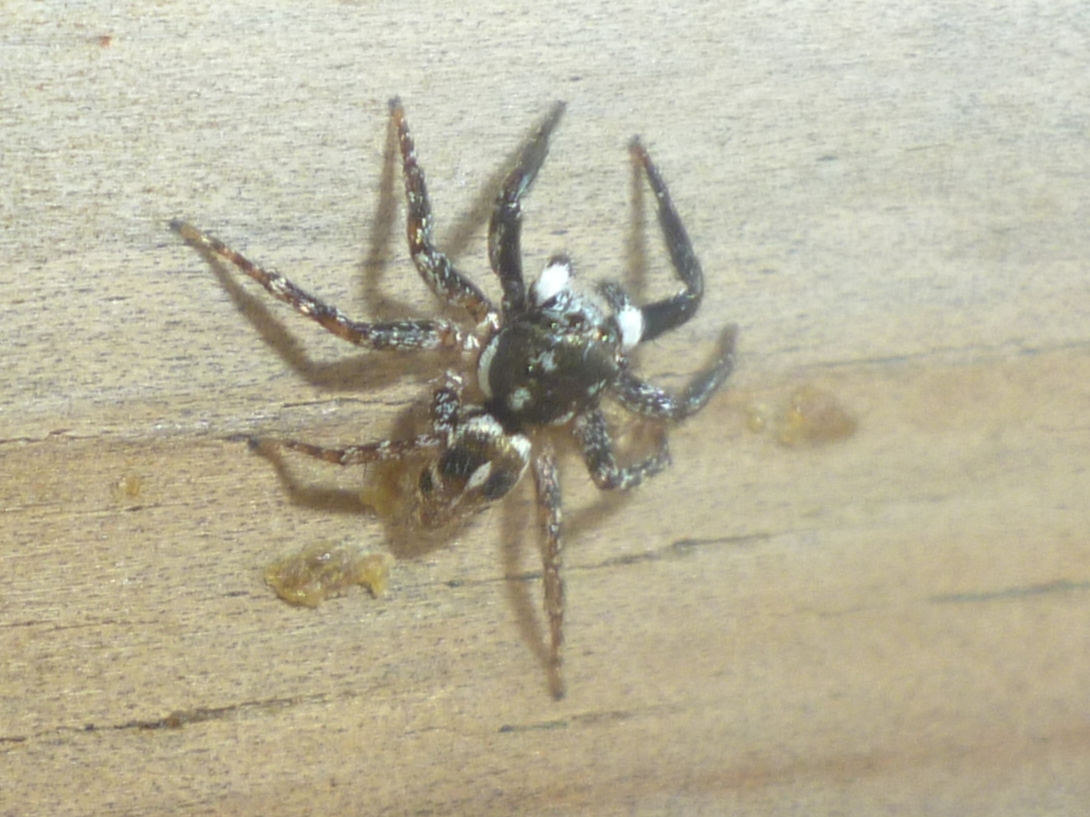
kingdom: Animalia
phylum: Arthropoda
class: Arachnida
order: Araneae
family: Salticidae
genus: Anasaitis
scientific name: Anasaitis canosa
